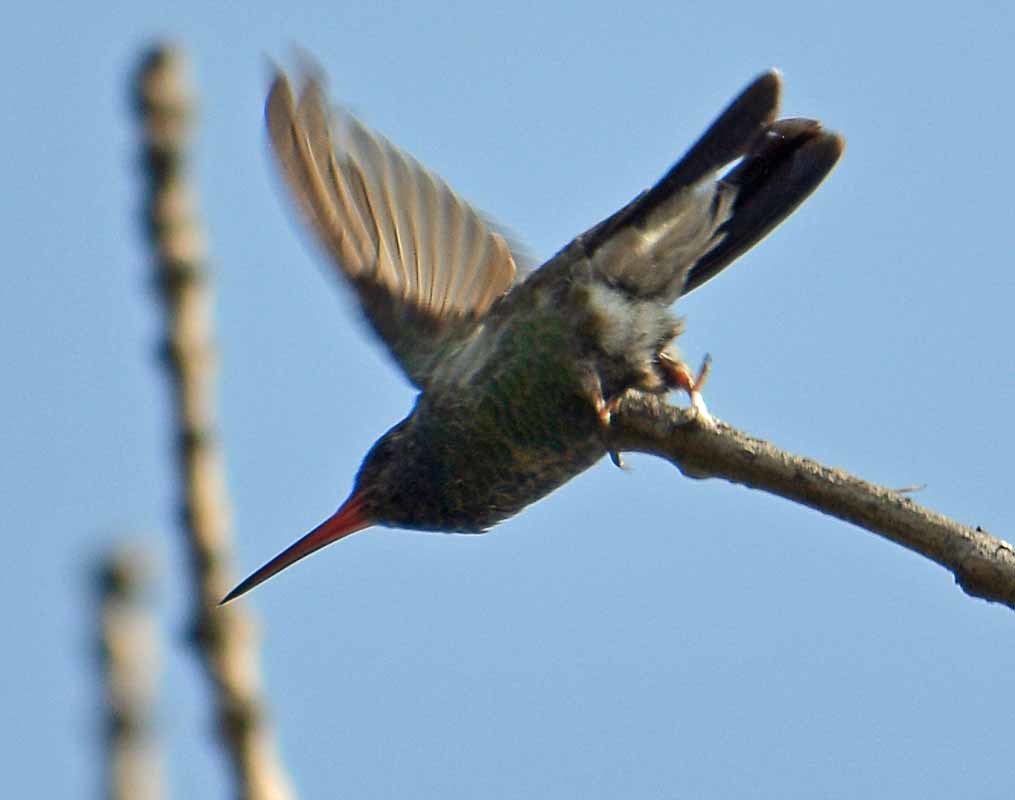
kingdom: Animalia
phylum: Chordata
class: Aves
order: Apodiformes
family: Trochilidae
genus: Cynanthus
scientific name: Cynanthus latirostris
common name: Broad-billed hummingbird
